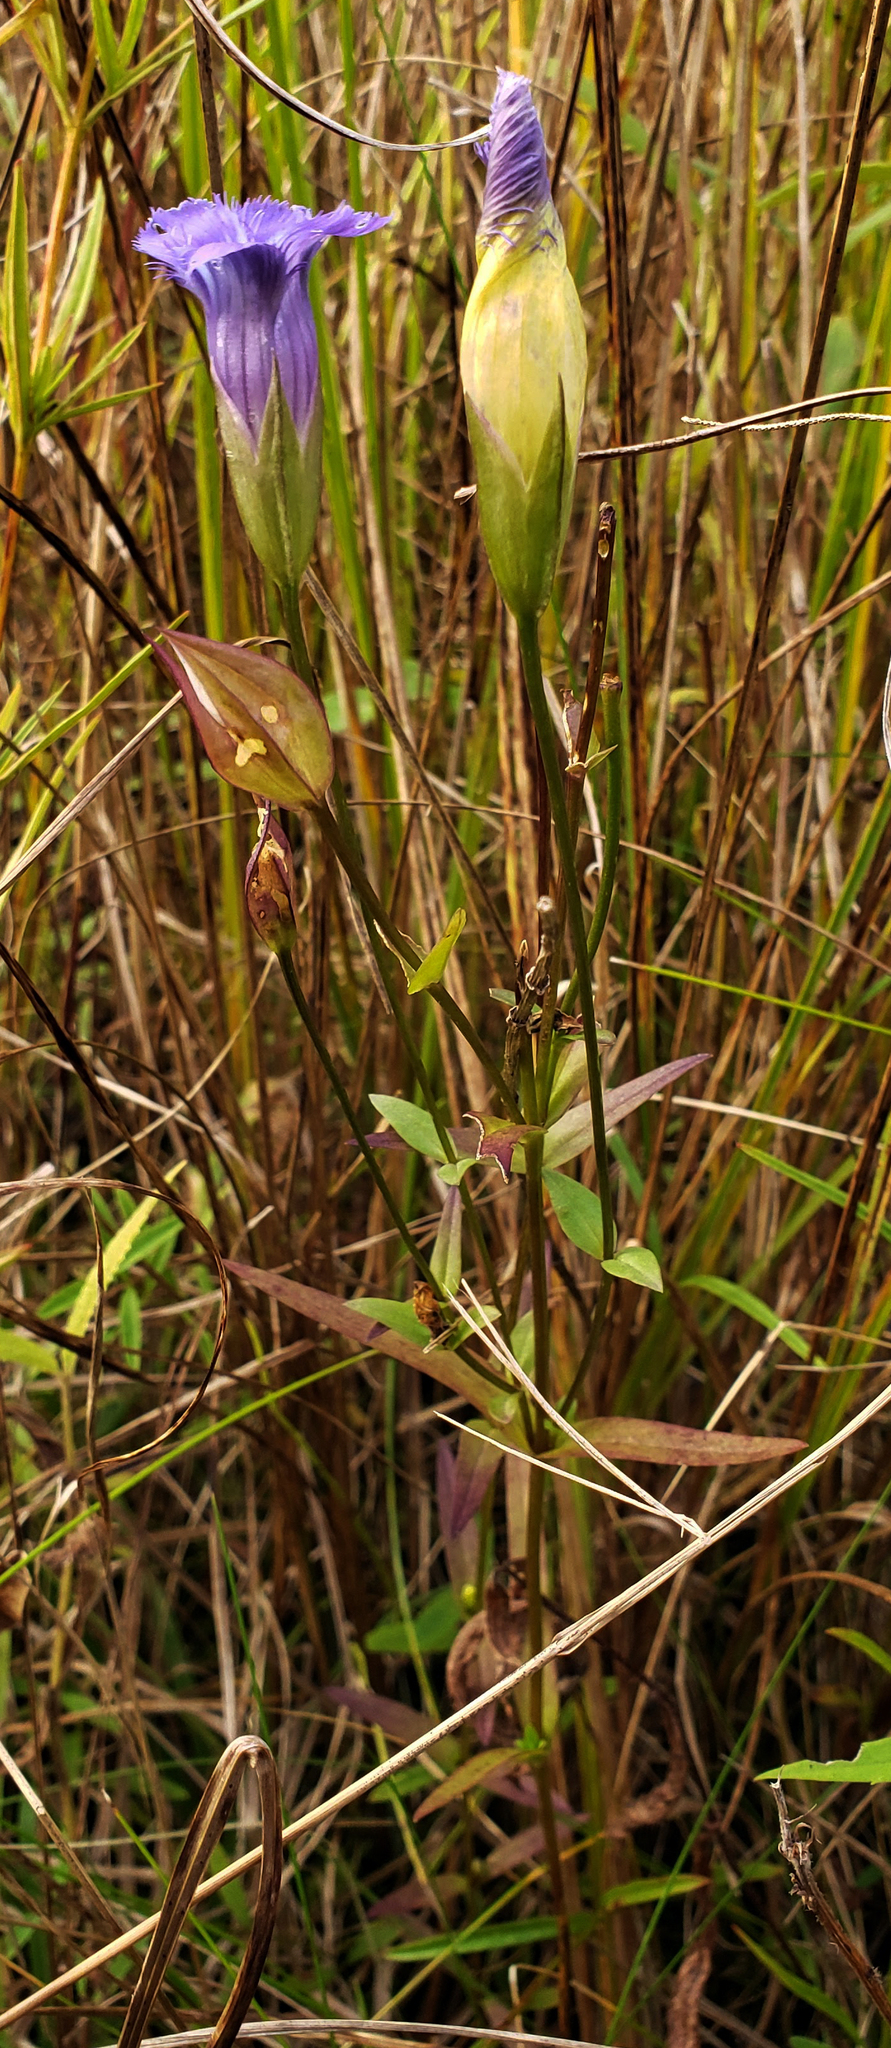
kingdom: Plantae
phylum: Tracheophyta
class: Magnoliopsida
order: Gentianales
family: Gentianaceae
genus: Gentianopsis
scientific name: Gentianopsis virgata
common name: Lesser fringed-gentian
